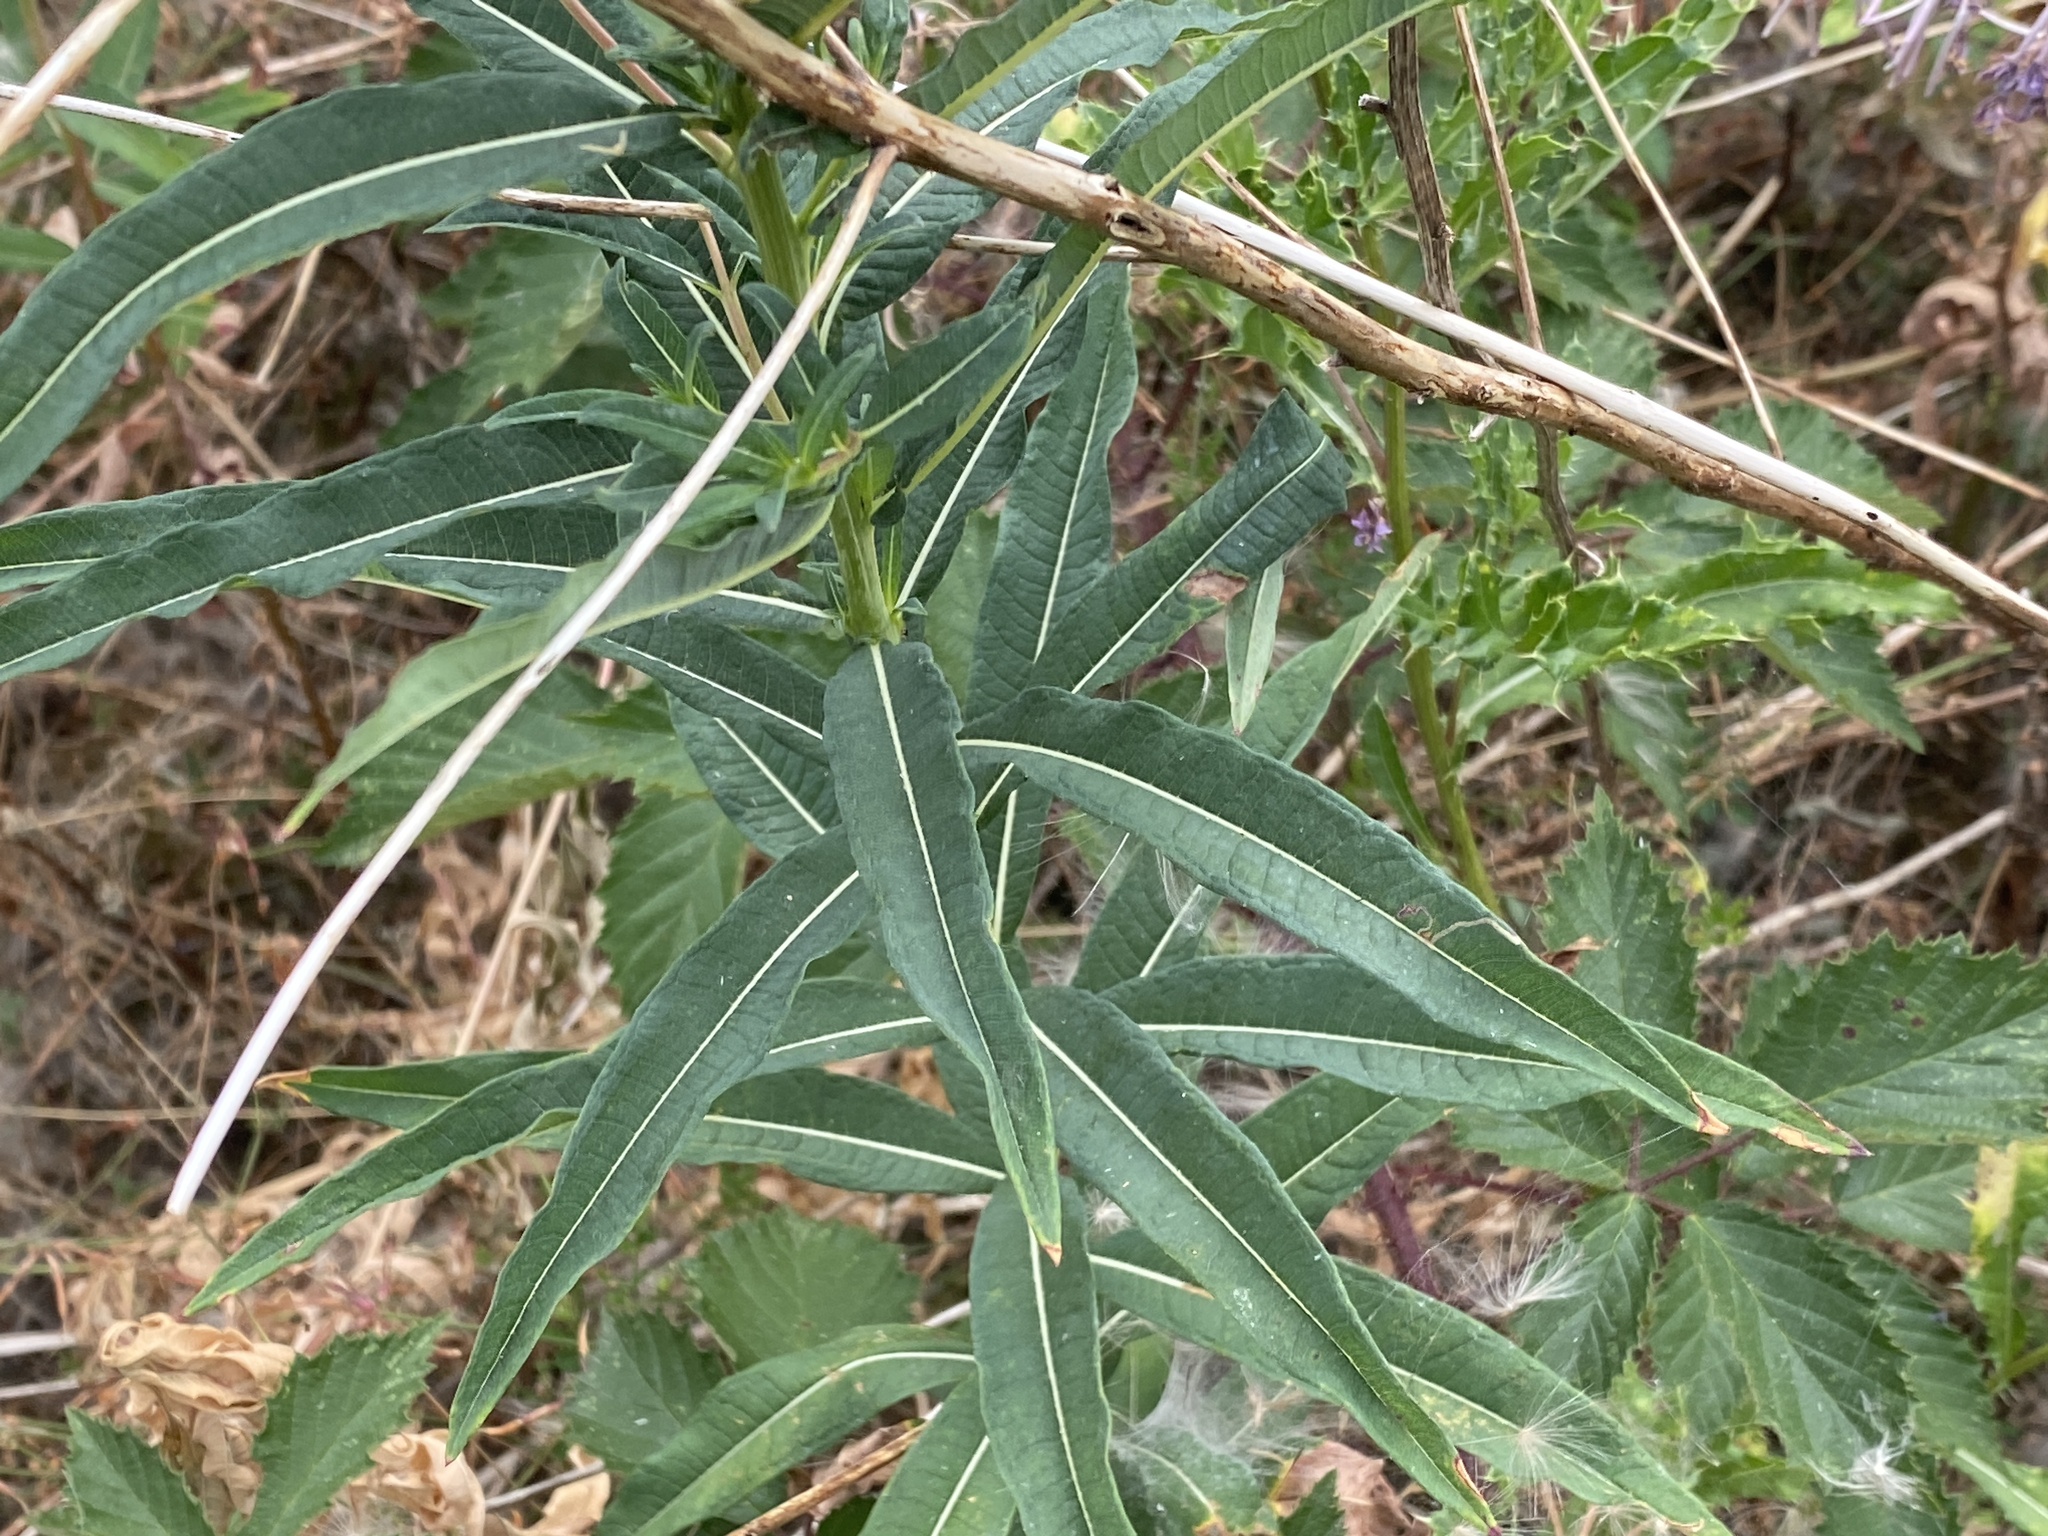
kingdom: Plantae
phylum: Tracheophyta
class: Magnoliopsida
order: Myrtales
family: Onagraceae
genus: Chamaenerion
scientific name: Chamaenerion angustifolium
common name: Fireweed
